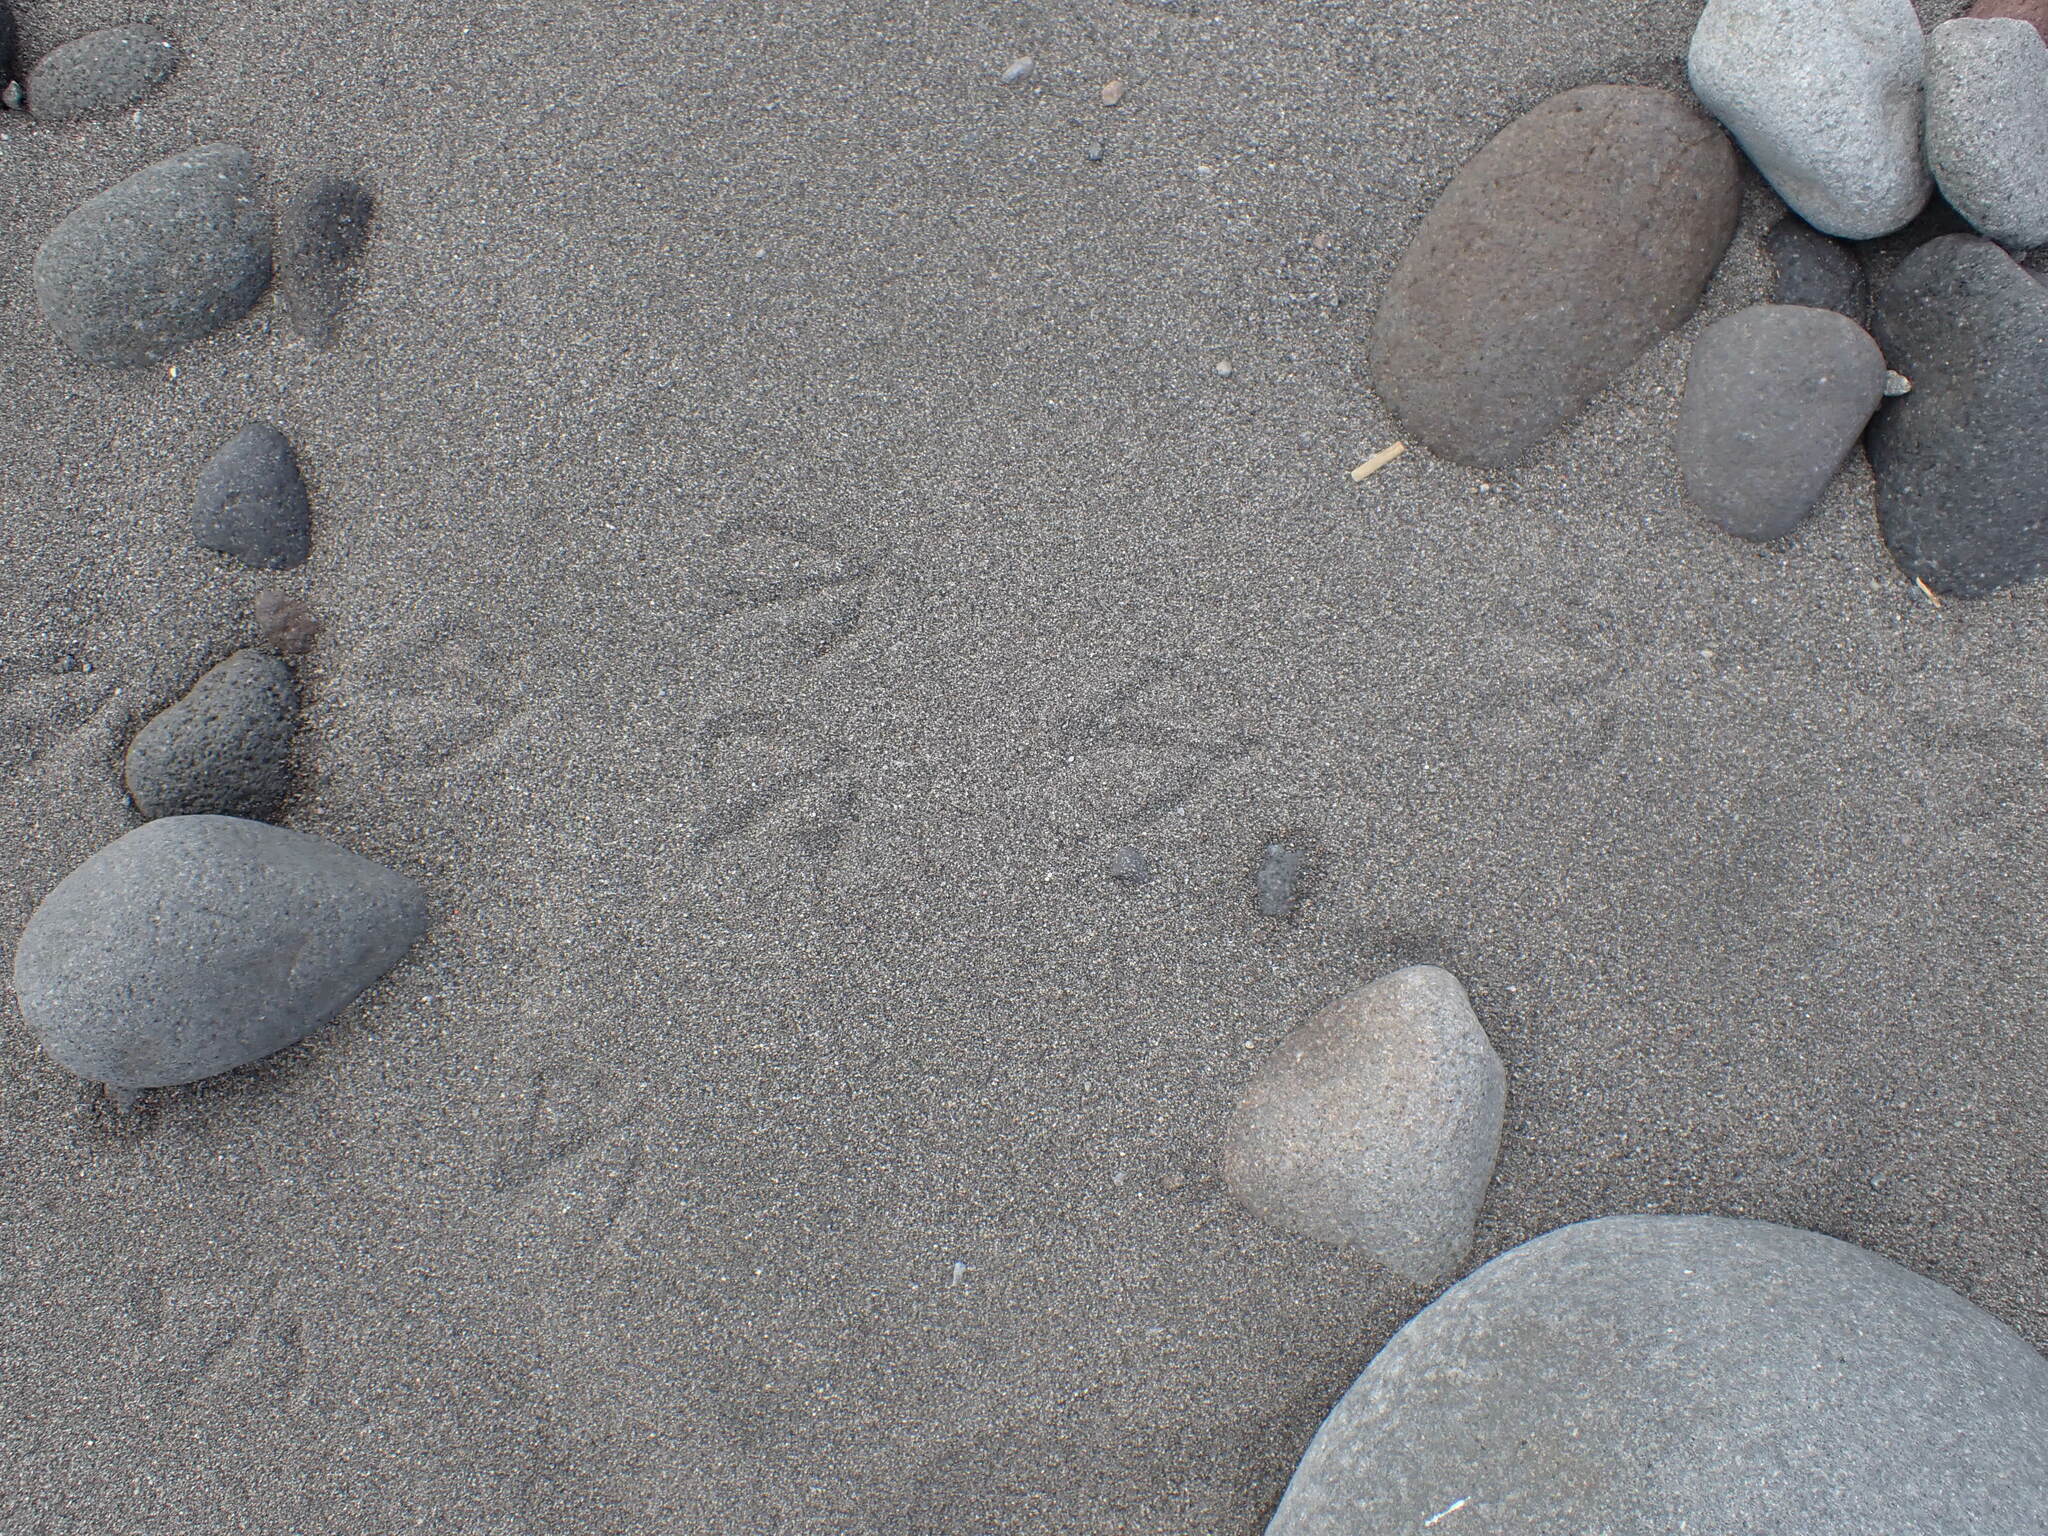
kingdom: Animalia
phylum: Chordata
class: Aves
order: Charadriiformes
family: Laridae
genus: Larus
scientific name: Larus dominicanus
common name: Kelp gull
